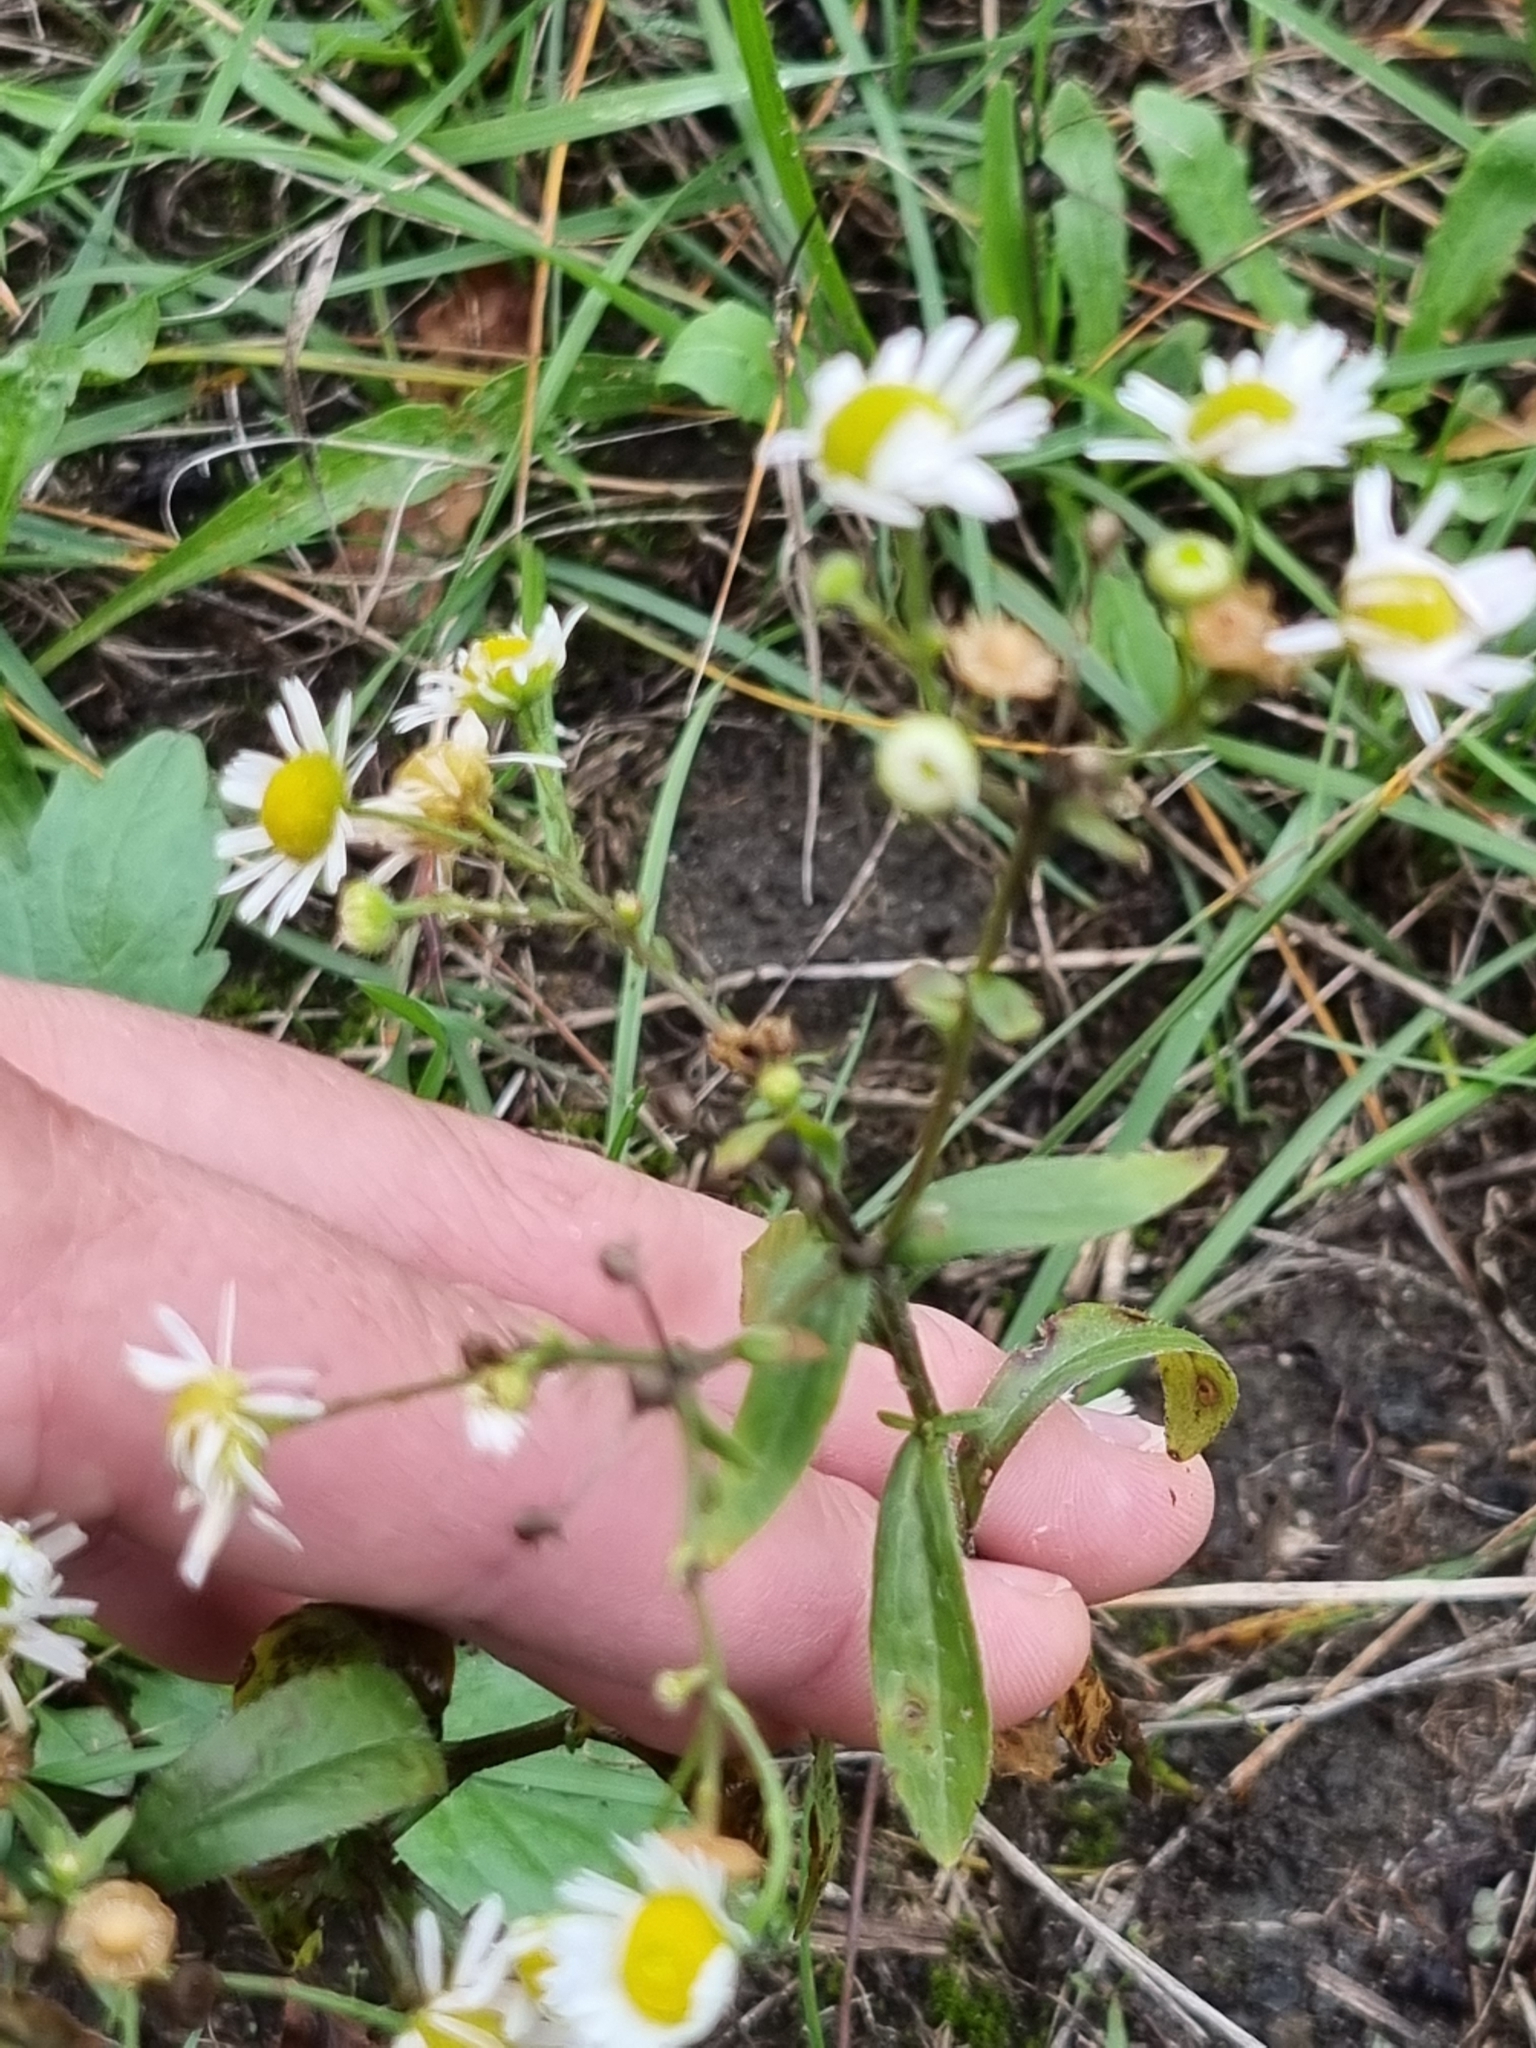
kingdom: Plantae
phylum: Tracheophyta
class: Magnoliopsida
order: Asterales
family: Asteraceae
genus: Erigeron
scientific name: Erigeron annuus
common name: Tall fleabane
